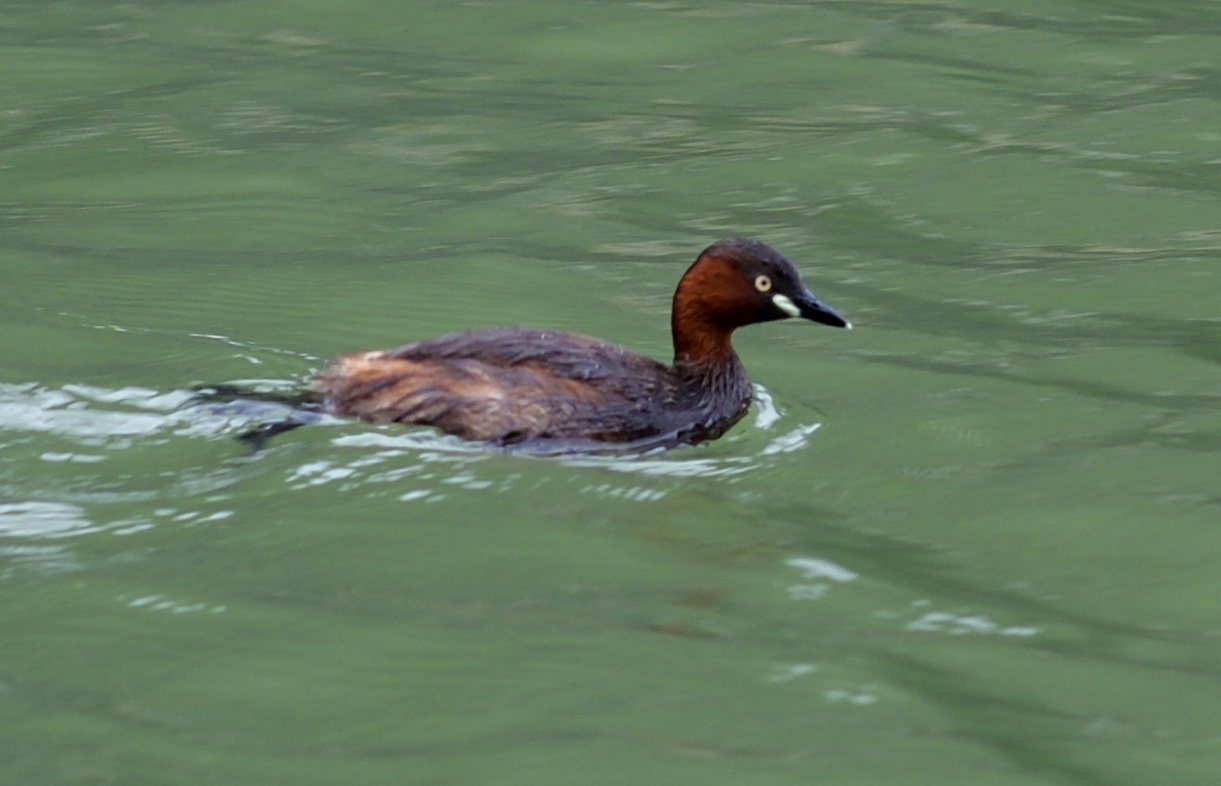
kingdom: Animalia
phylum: Chordata
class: Aves
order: Podicipediformes
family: Podicipedidae
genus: Tachybaptus
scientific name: Tachybaptus ruficollis
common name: Little grebe
